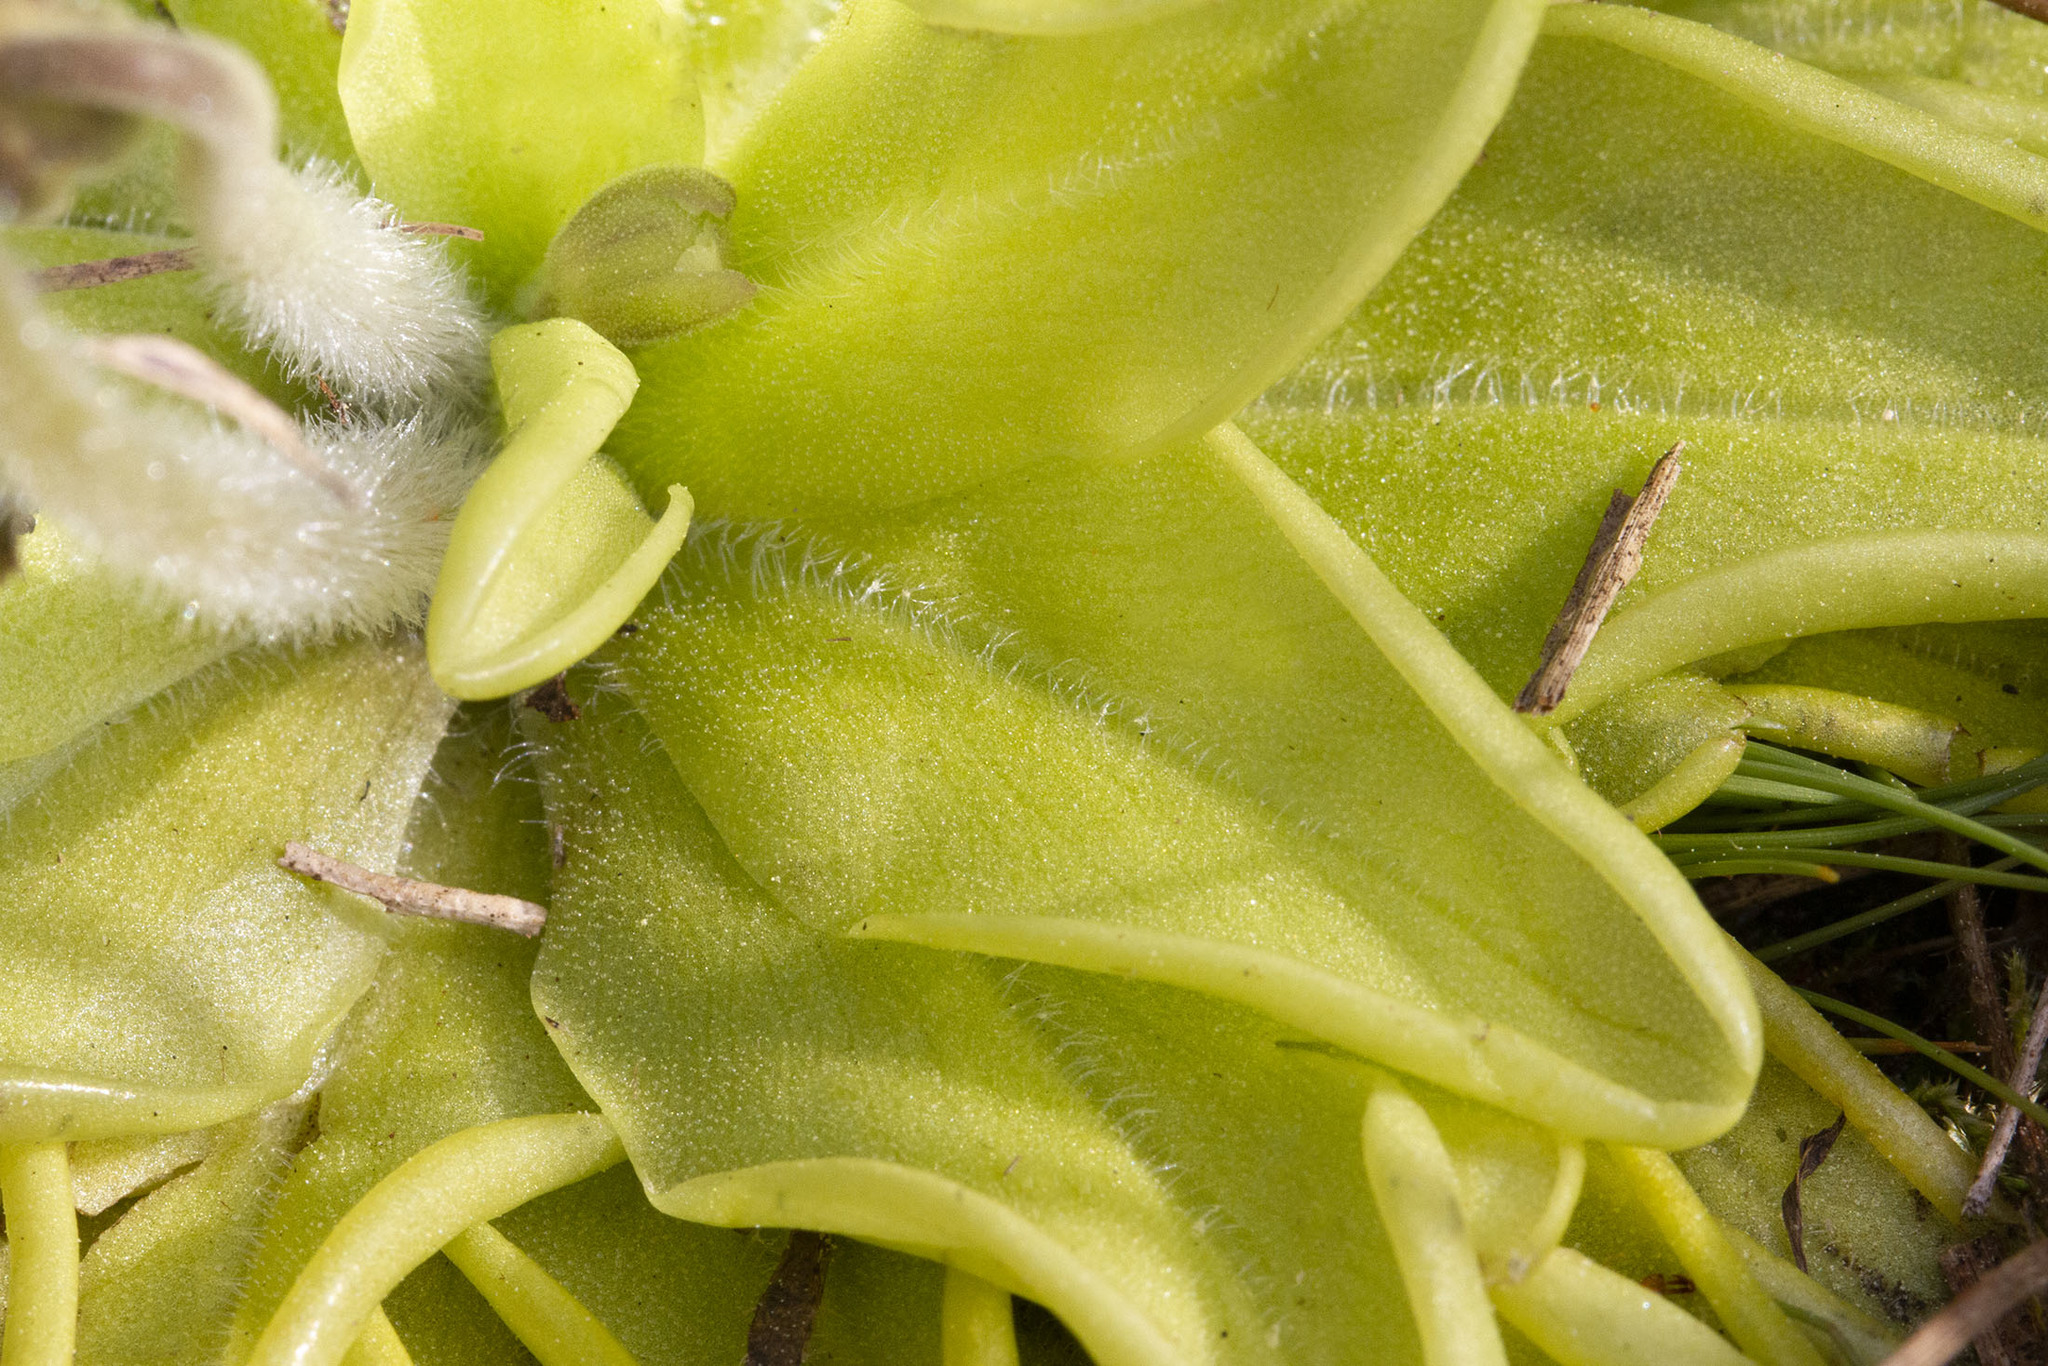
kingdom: Plantae
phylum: Tracheophyta
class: Magnoliopsida
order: Lamiales
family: Lentibulariaceae
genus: Pinguicula
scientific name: Pinguicula caerulea
